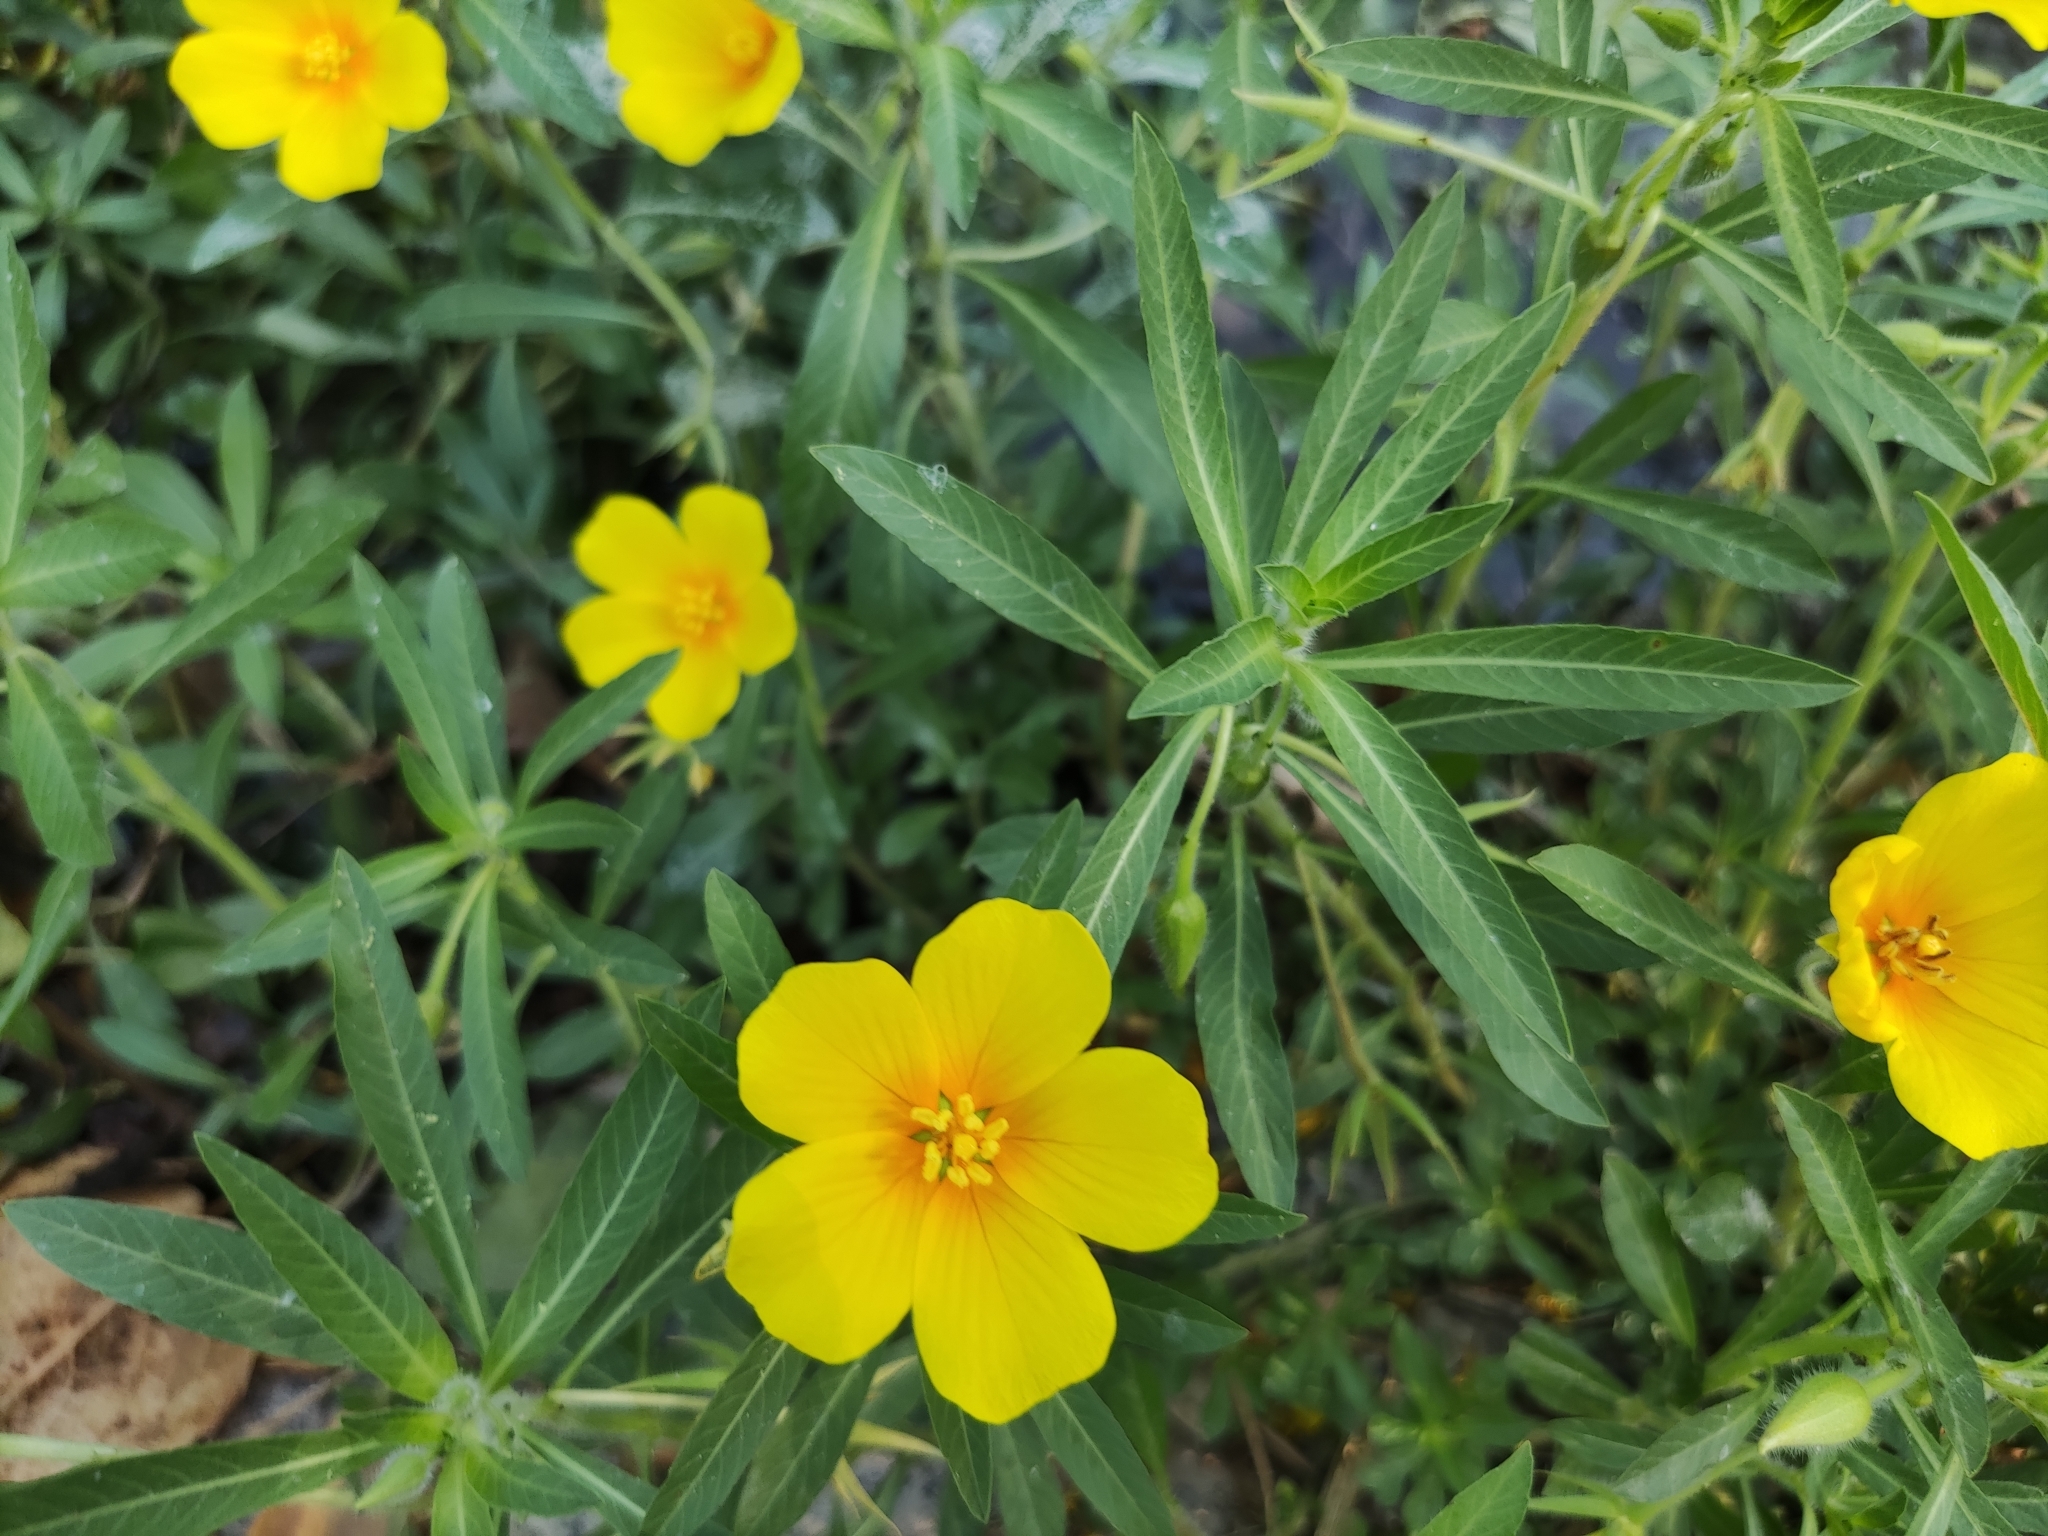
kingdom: Plantae
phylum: Tracheophyta
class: Magnoliopsida
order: Myrtales
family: Onagraceae
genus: Ludwigia
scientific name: Ludwigia hexapetala
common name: Water-primrose
